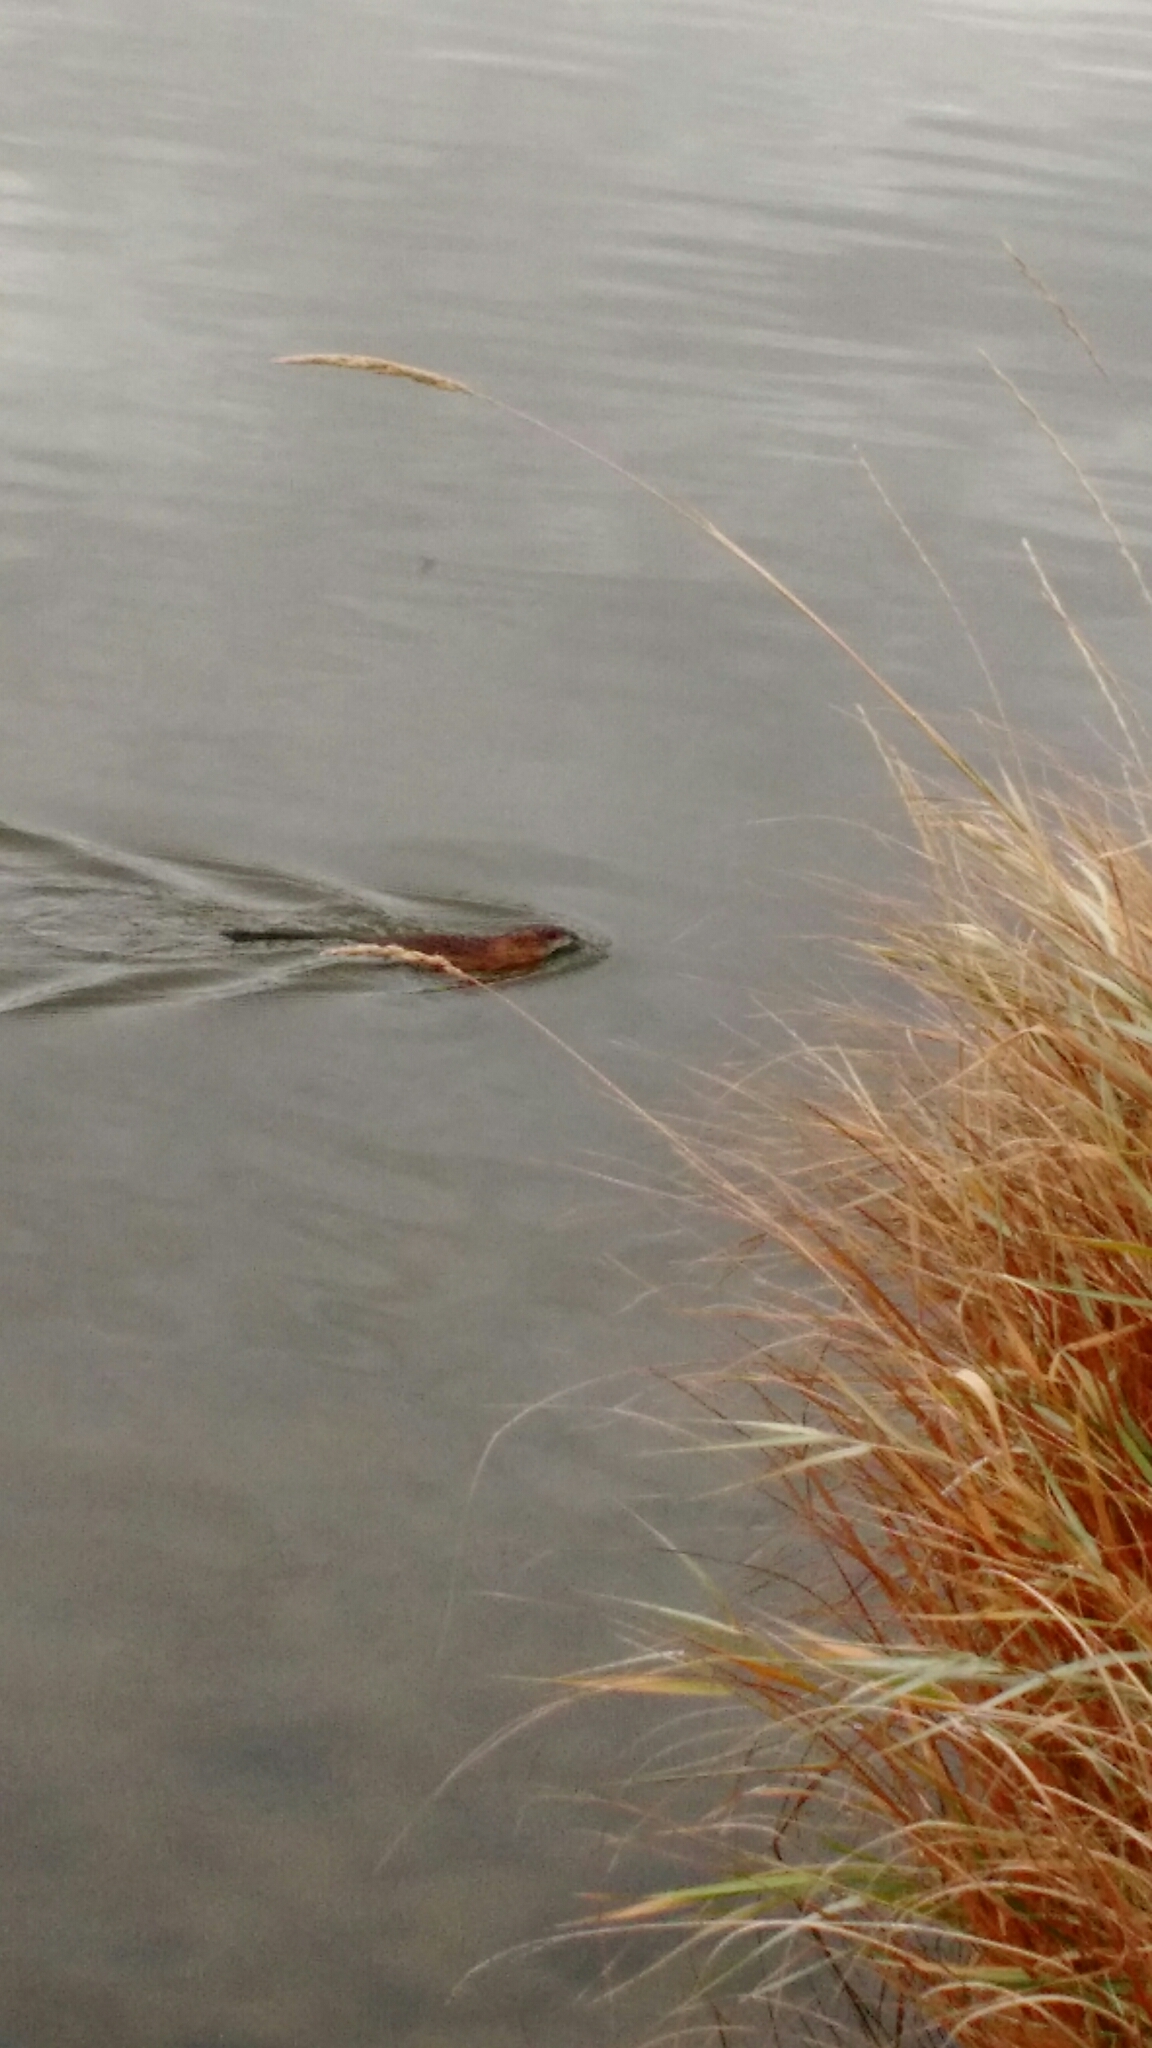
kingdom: Animalia
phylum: Chordata
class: Mammalia
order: Rodentia
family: Cricetidae
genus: Ondatra
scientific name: Ondatra zibethicus
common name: Muskrat
